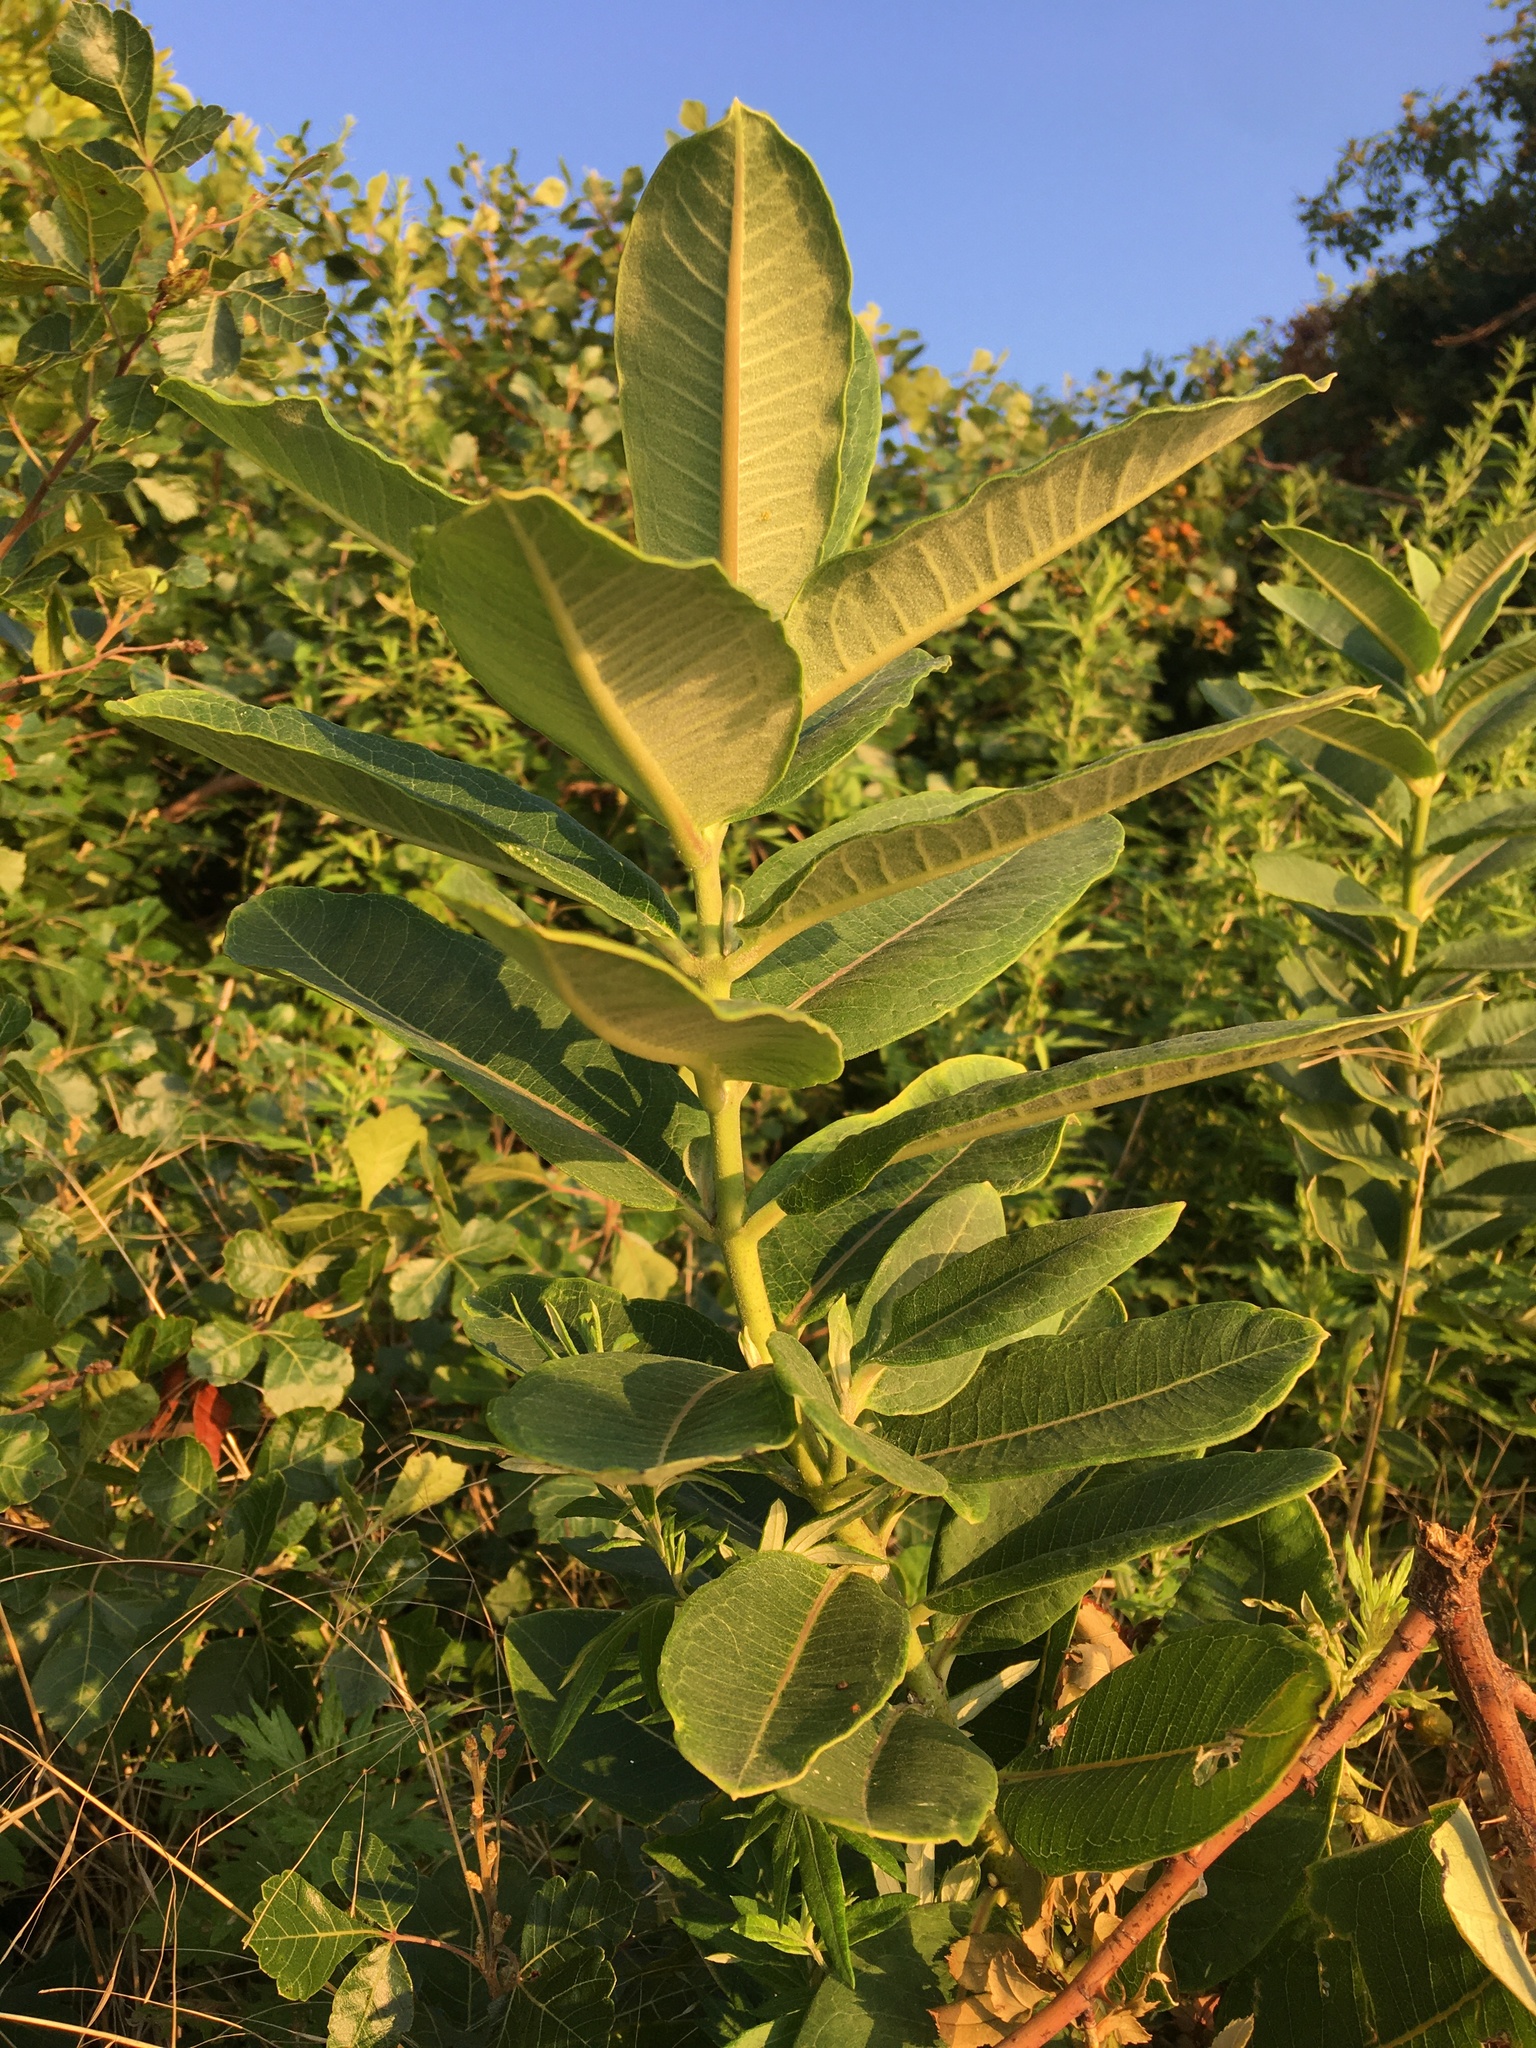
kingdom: Plantae
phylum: Tracheophyta
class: Magnoliopsida
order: Gentianales
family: Apocynaceae
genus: Asclepias
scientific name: Asclepias syriaca
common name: Common milkweed
